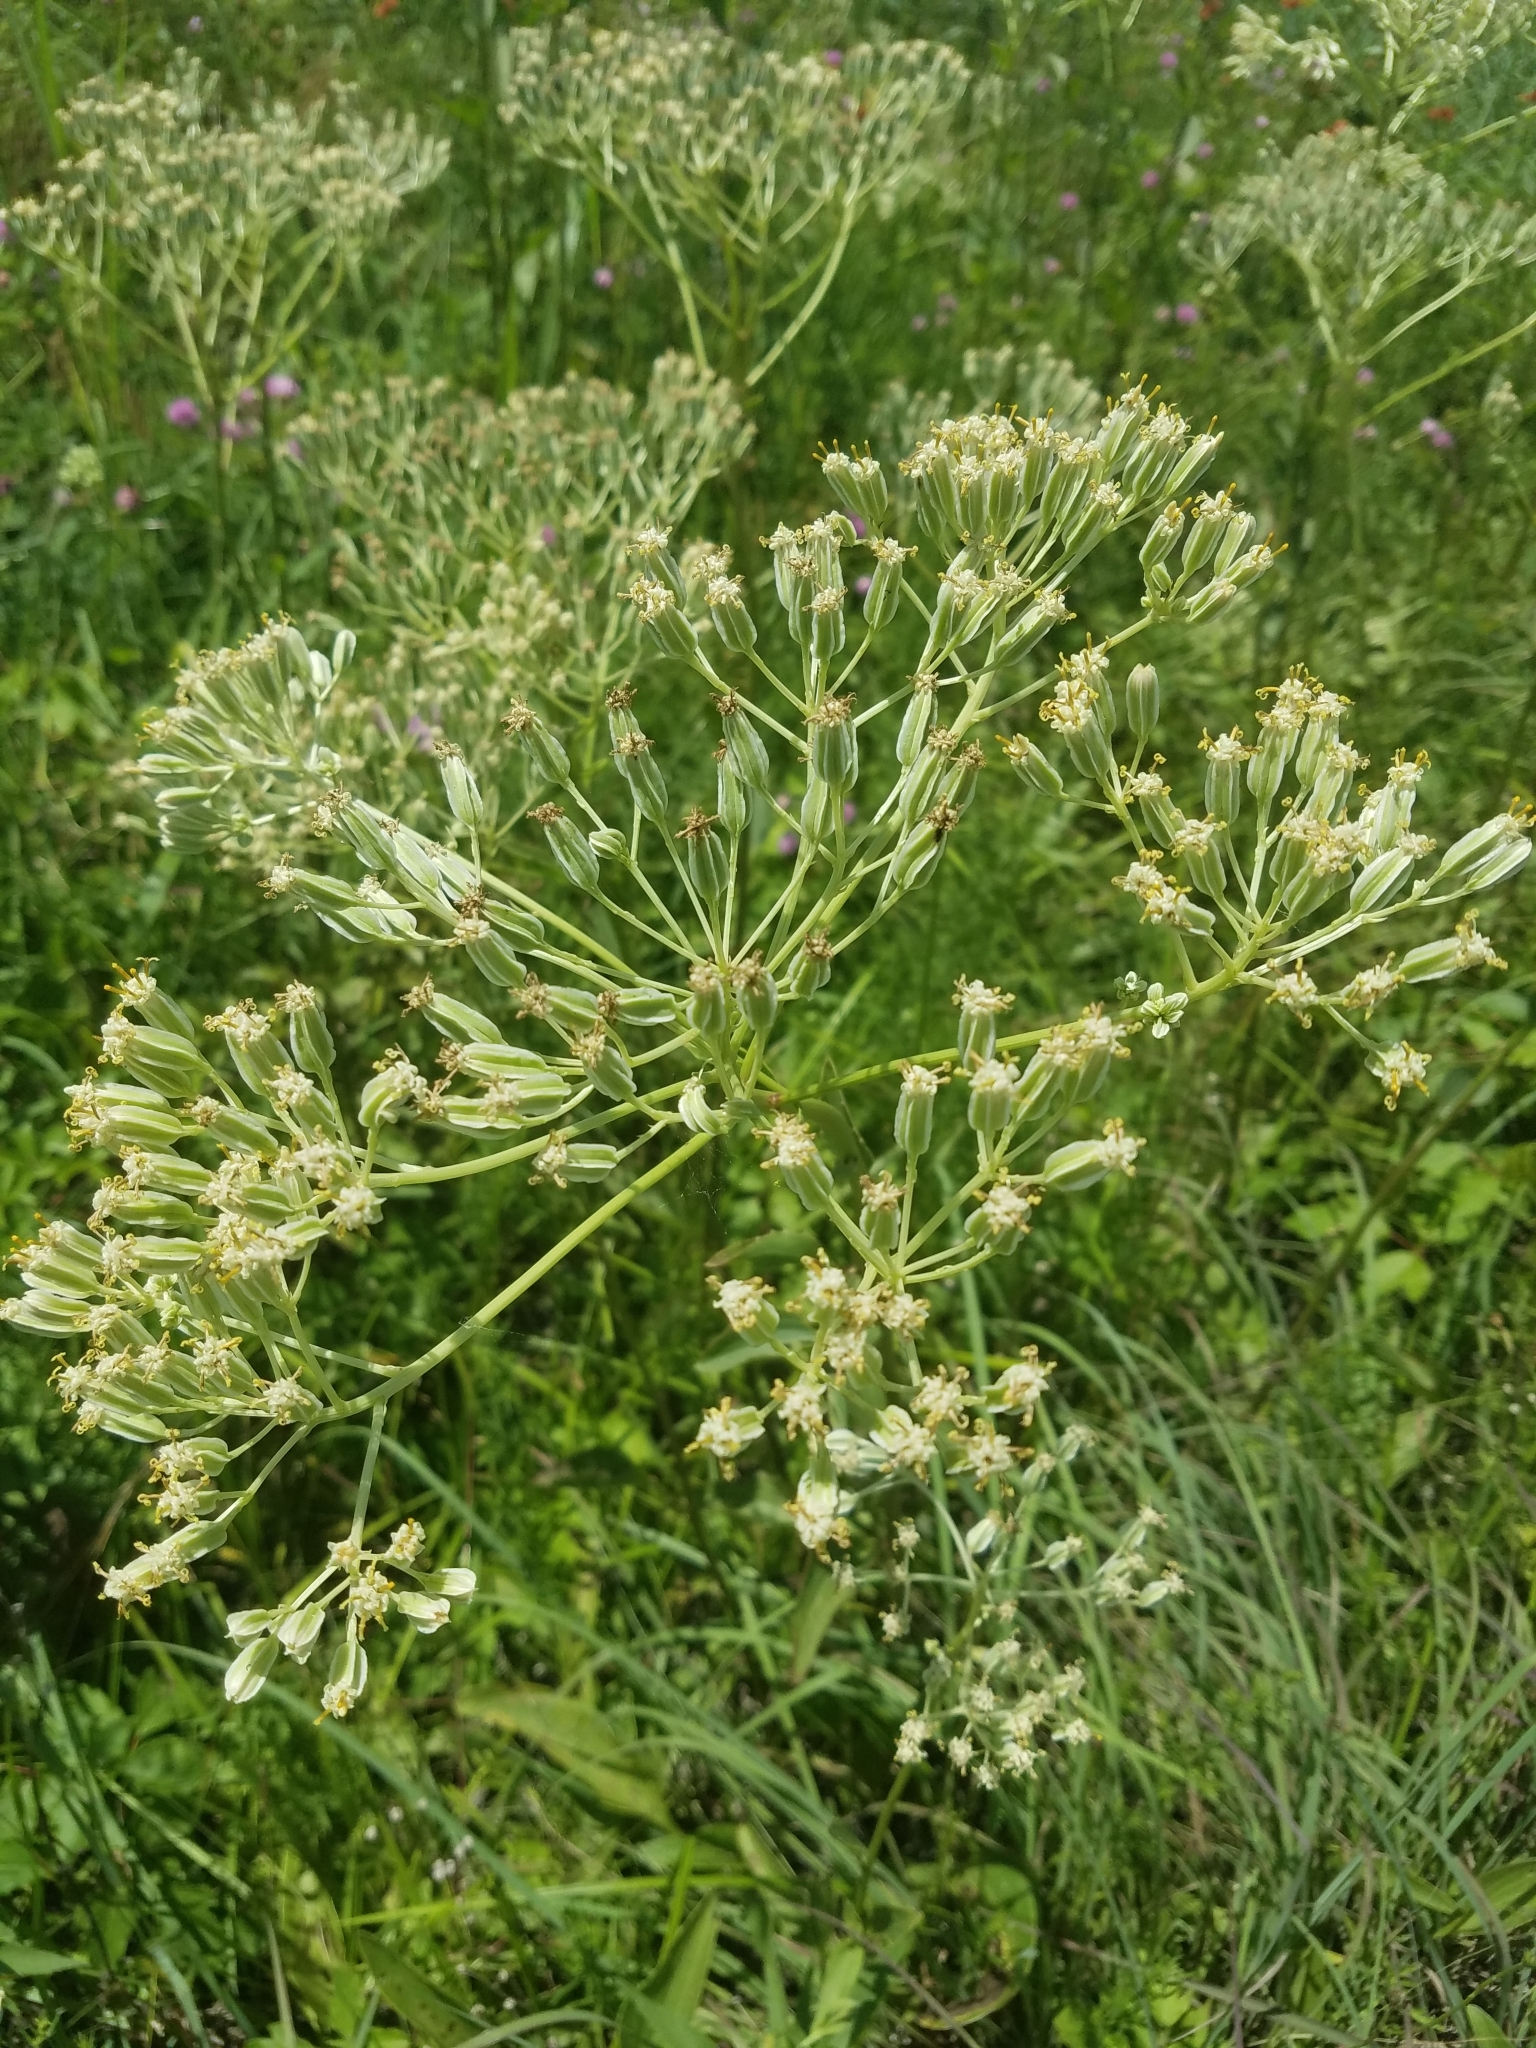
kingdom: Plantae
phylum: Tracheophyta
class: Magnoliopsida
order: Asterales
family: Asteraceae
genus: Arnoglossum
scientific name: Arnoglossum plantagineum
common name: Groove-stemmed indian-plantain
